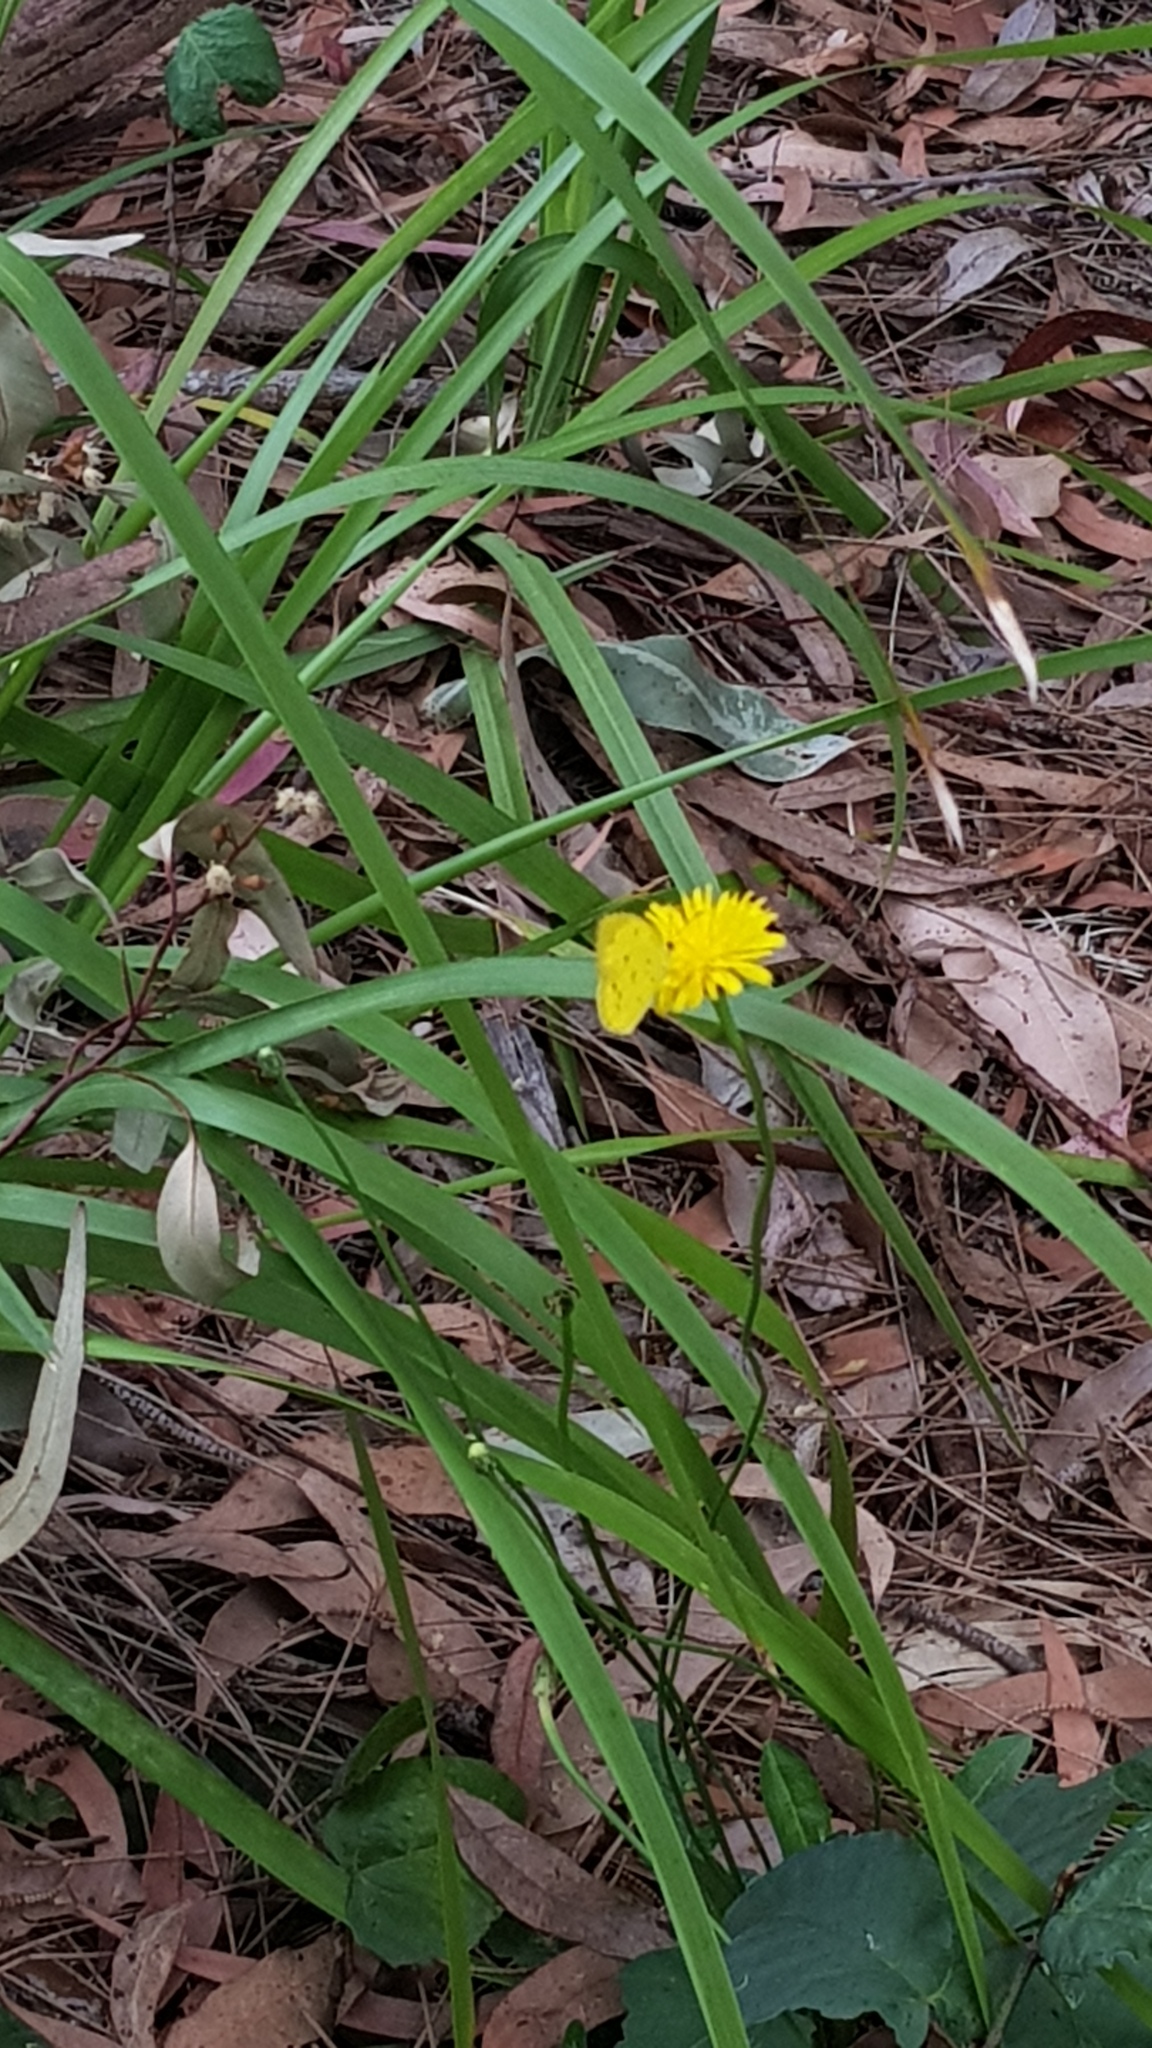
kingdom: Animalia
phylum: Arthropoda
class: Insecta
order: Lepidoptera
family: Pieridae
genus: Eurema
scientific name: Eurema hecabe
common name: Pale grass yellow
